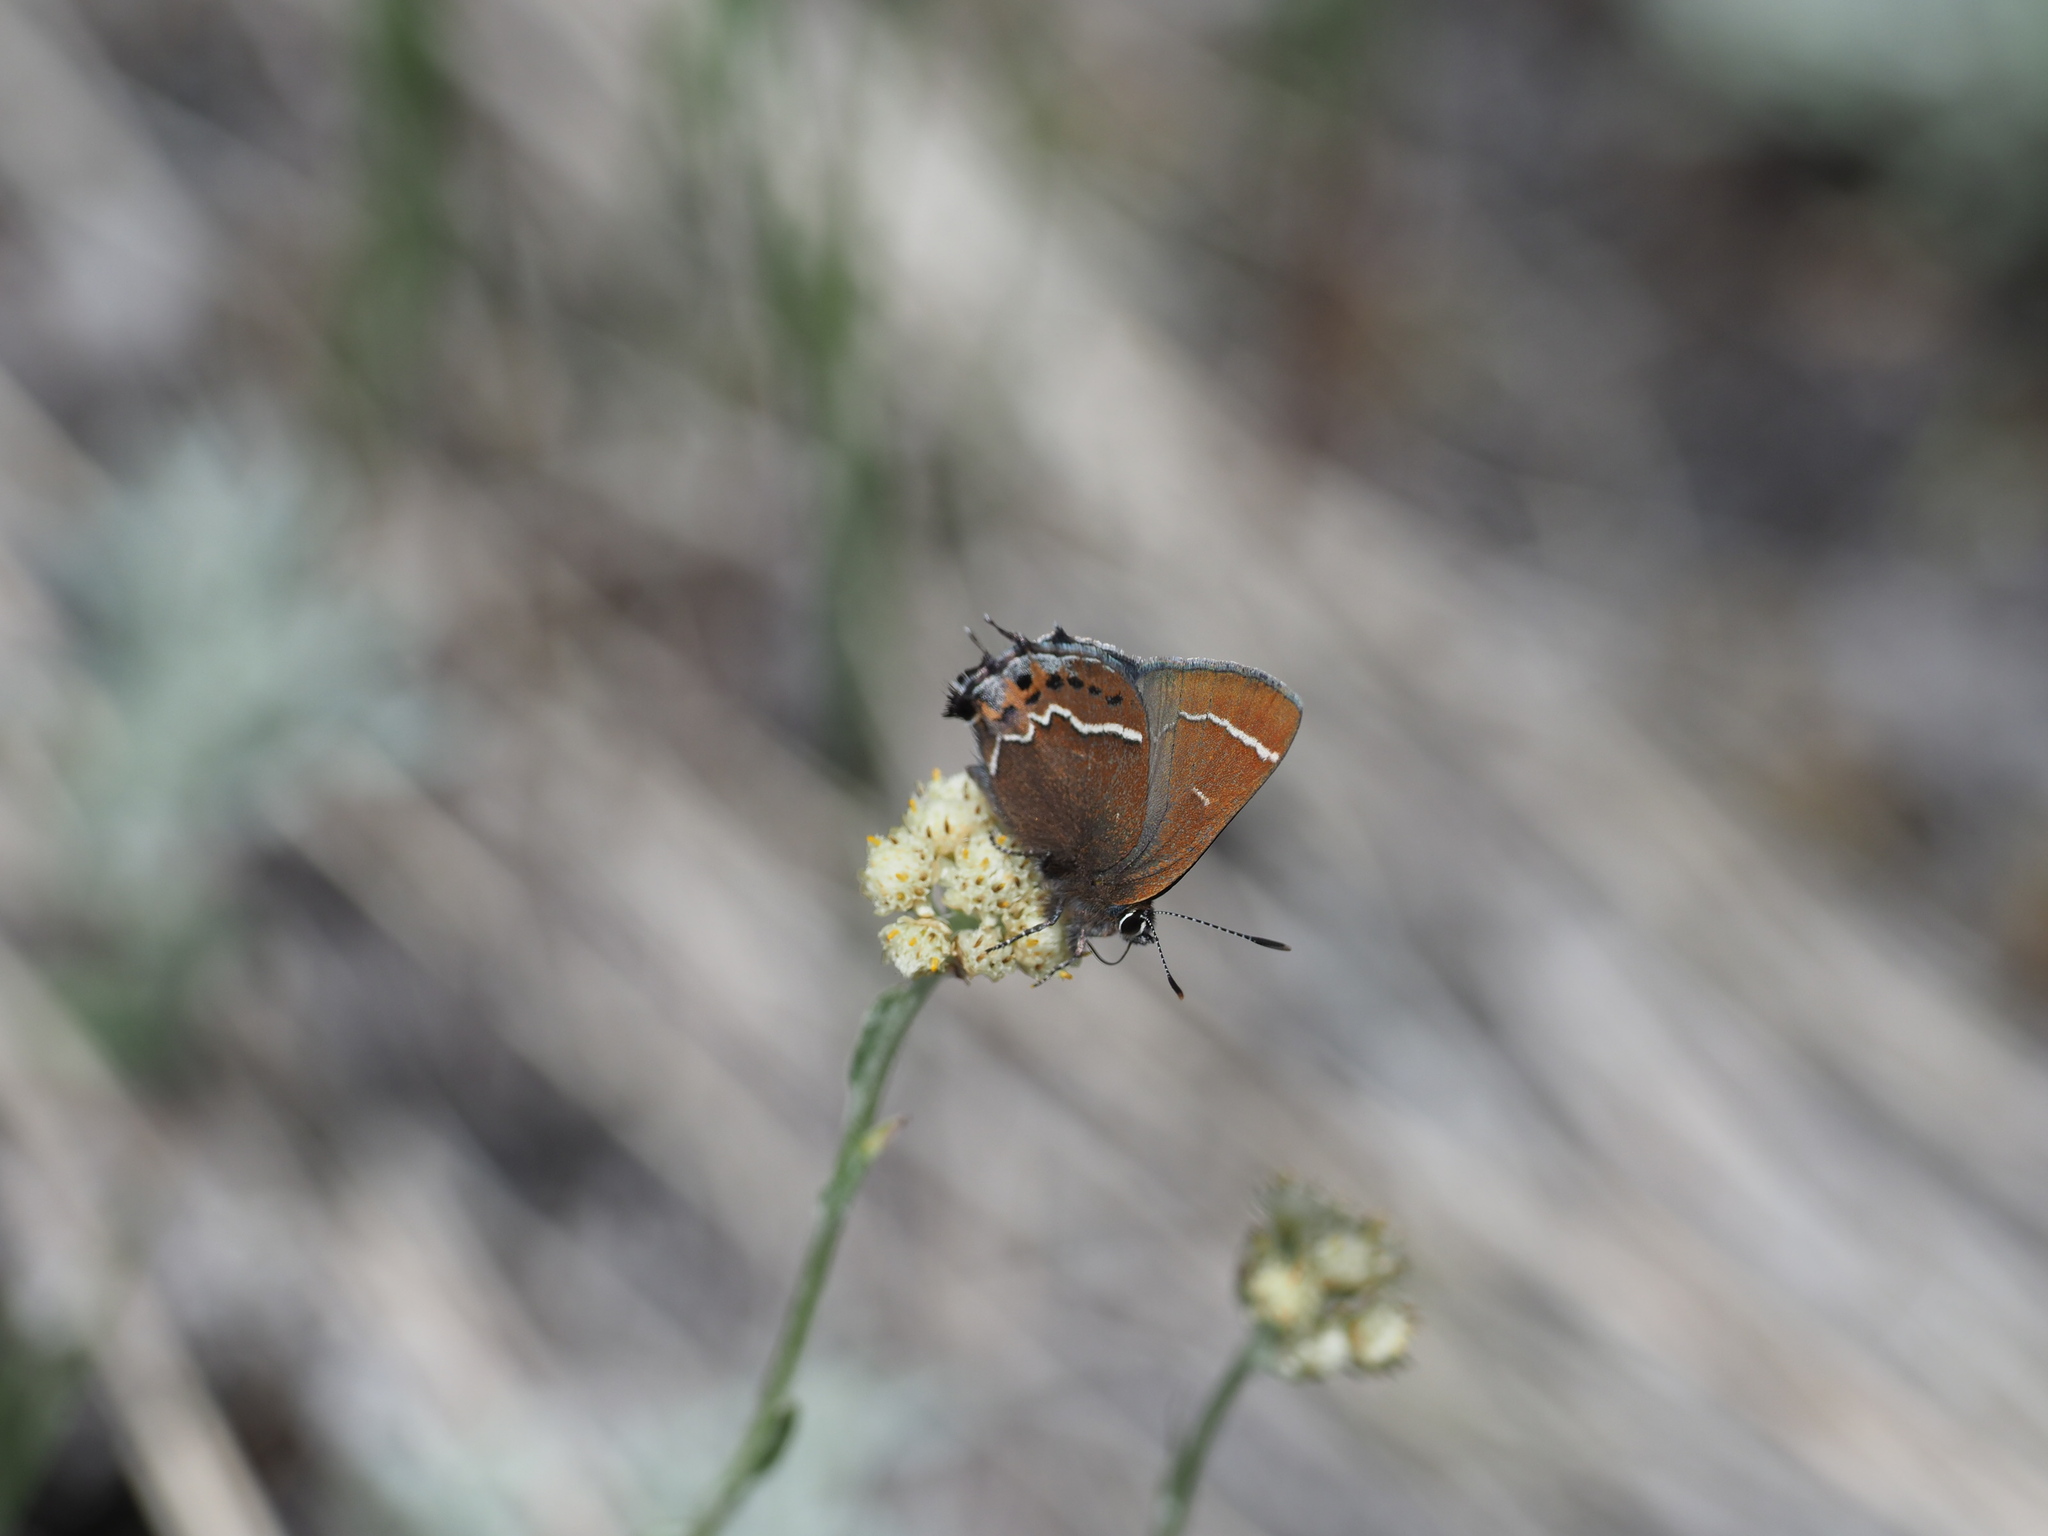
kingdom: Animalia
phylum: Arthropoda
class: Insecta
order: Lepidoptera
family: Lycaenidae
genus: Mitoura
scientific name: Mitoura spinetorum
